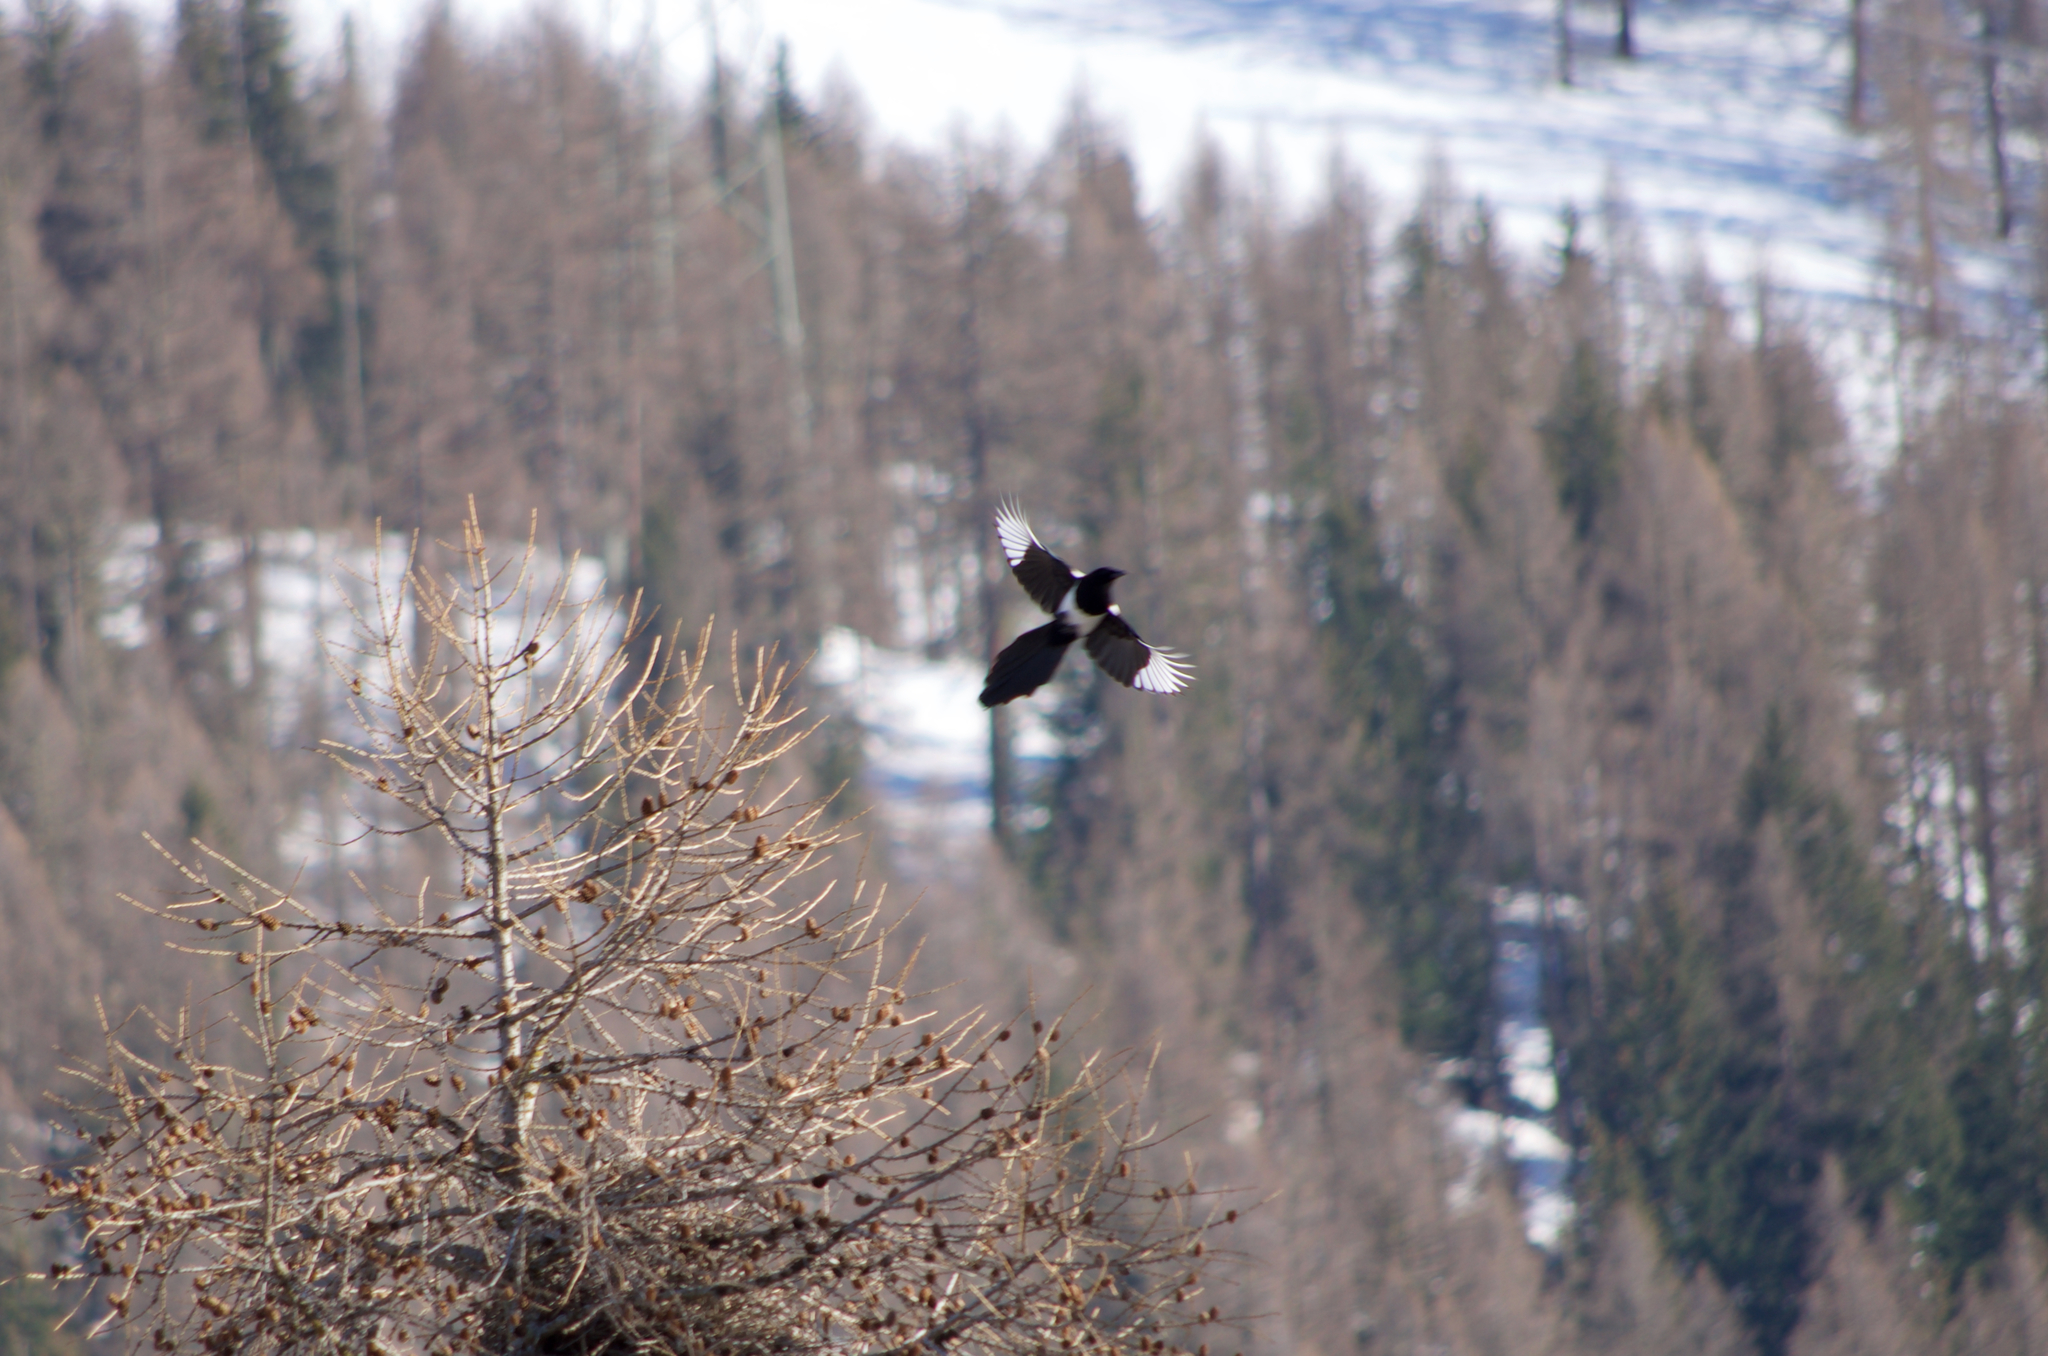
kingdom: Animalia
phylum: Chordata
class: Aves
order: Passeriformes
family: Corvidae
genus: Pica
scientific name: Pica pica
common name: Eurasian magpie
